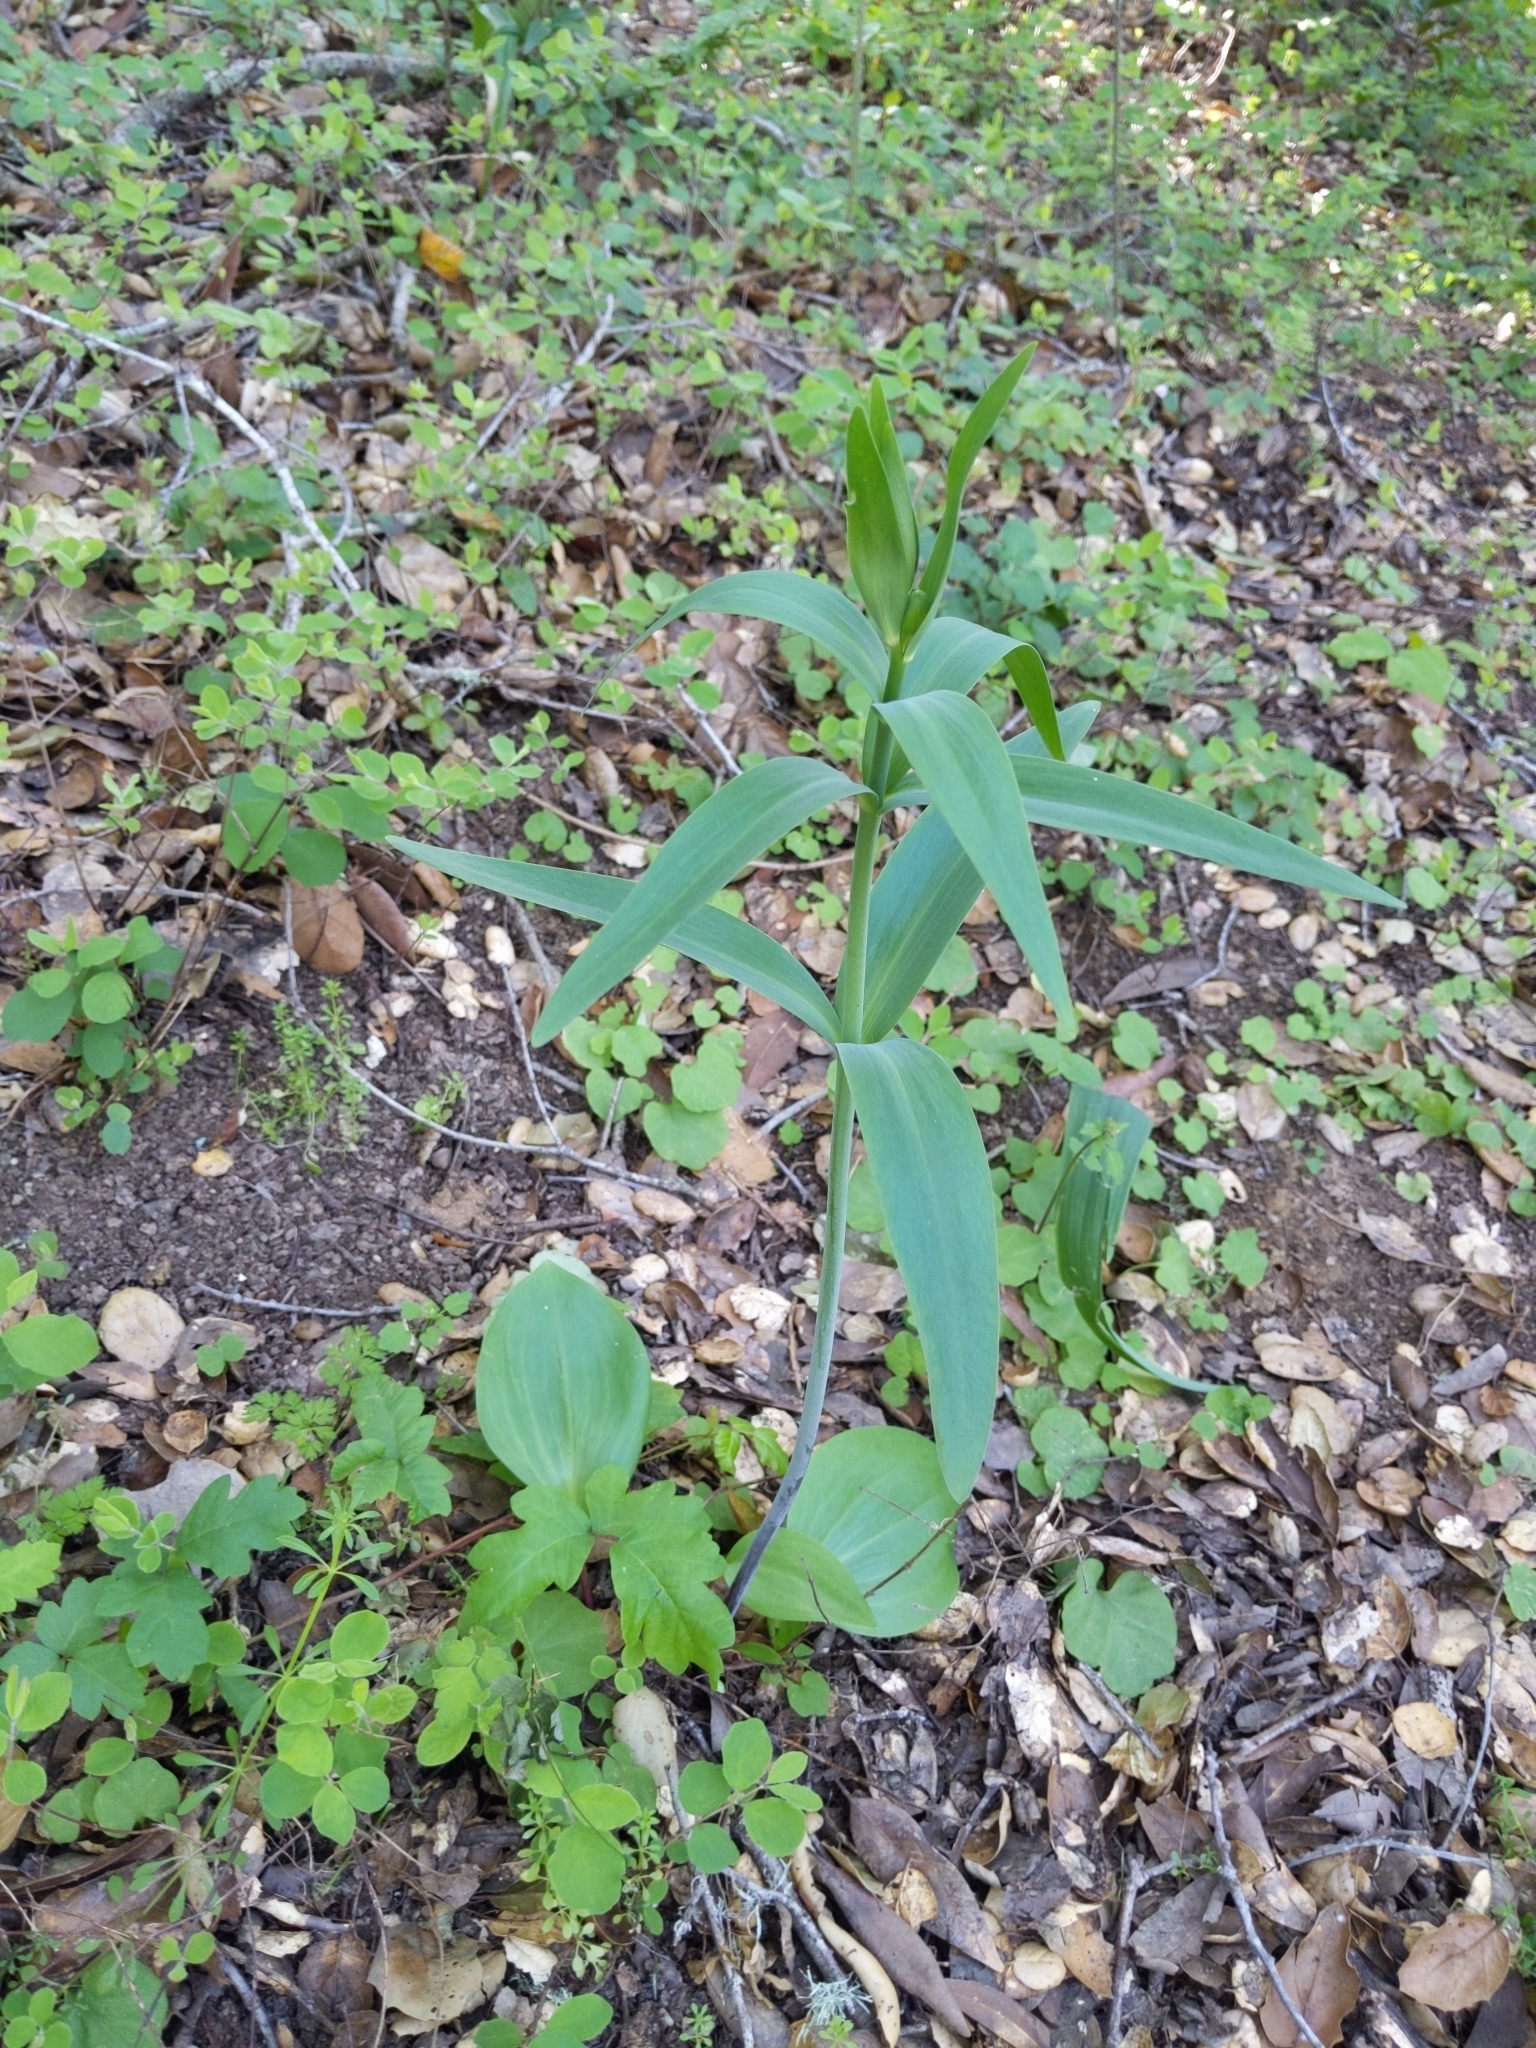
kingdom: Plantae
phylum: Tracheophyta
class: Liliopsida
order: Liliales
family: Liliaceae
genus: Fritillaria
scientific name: Fritillaria affinis
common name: Ojai fritillary
